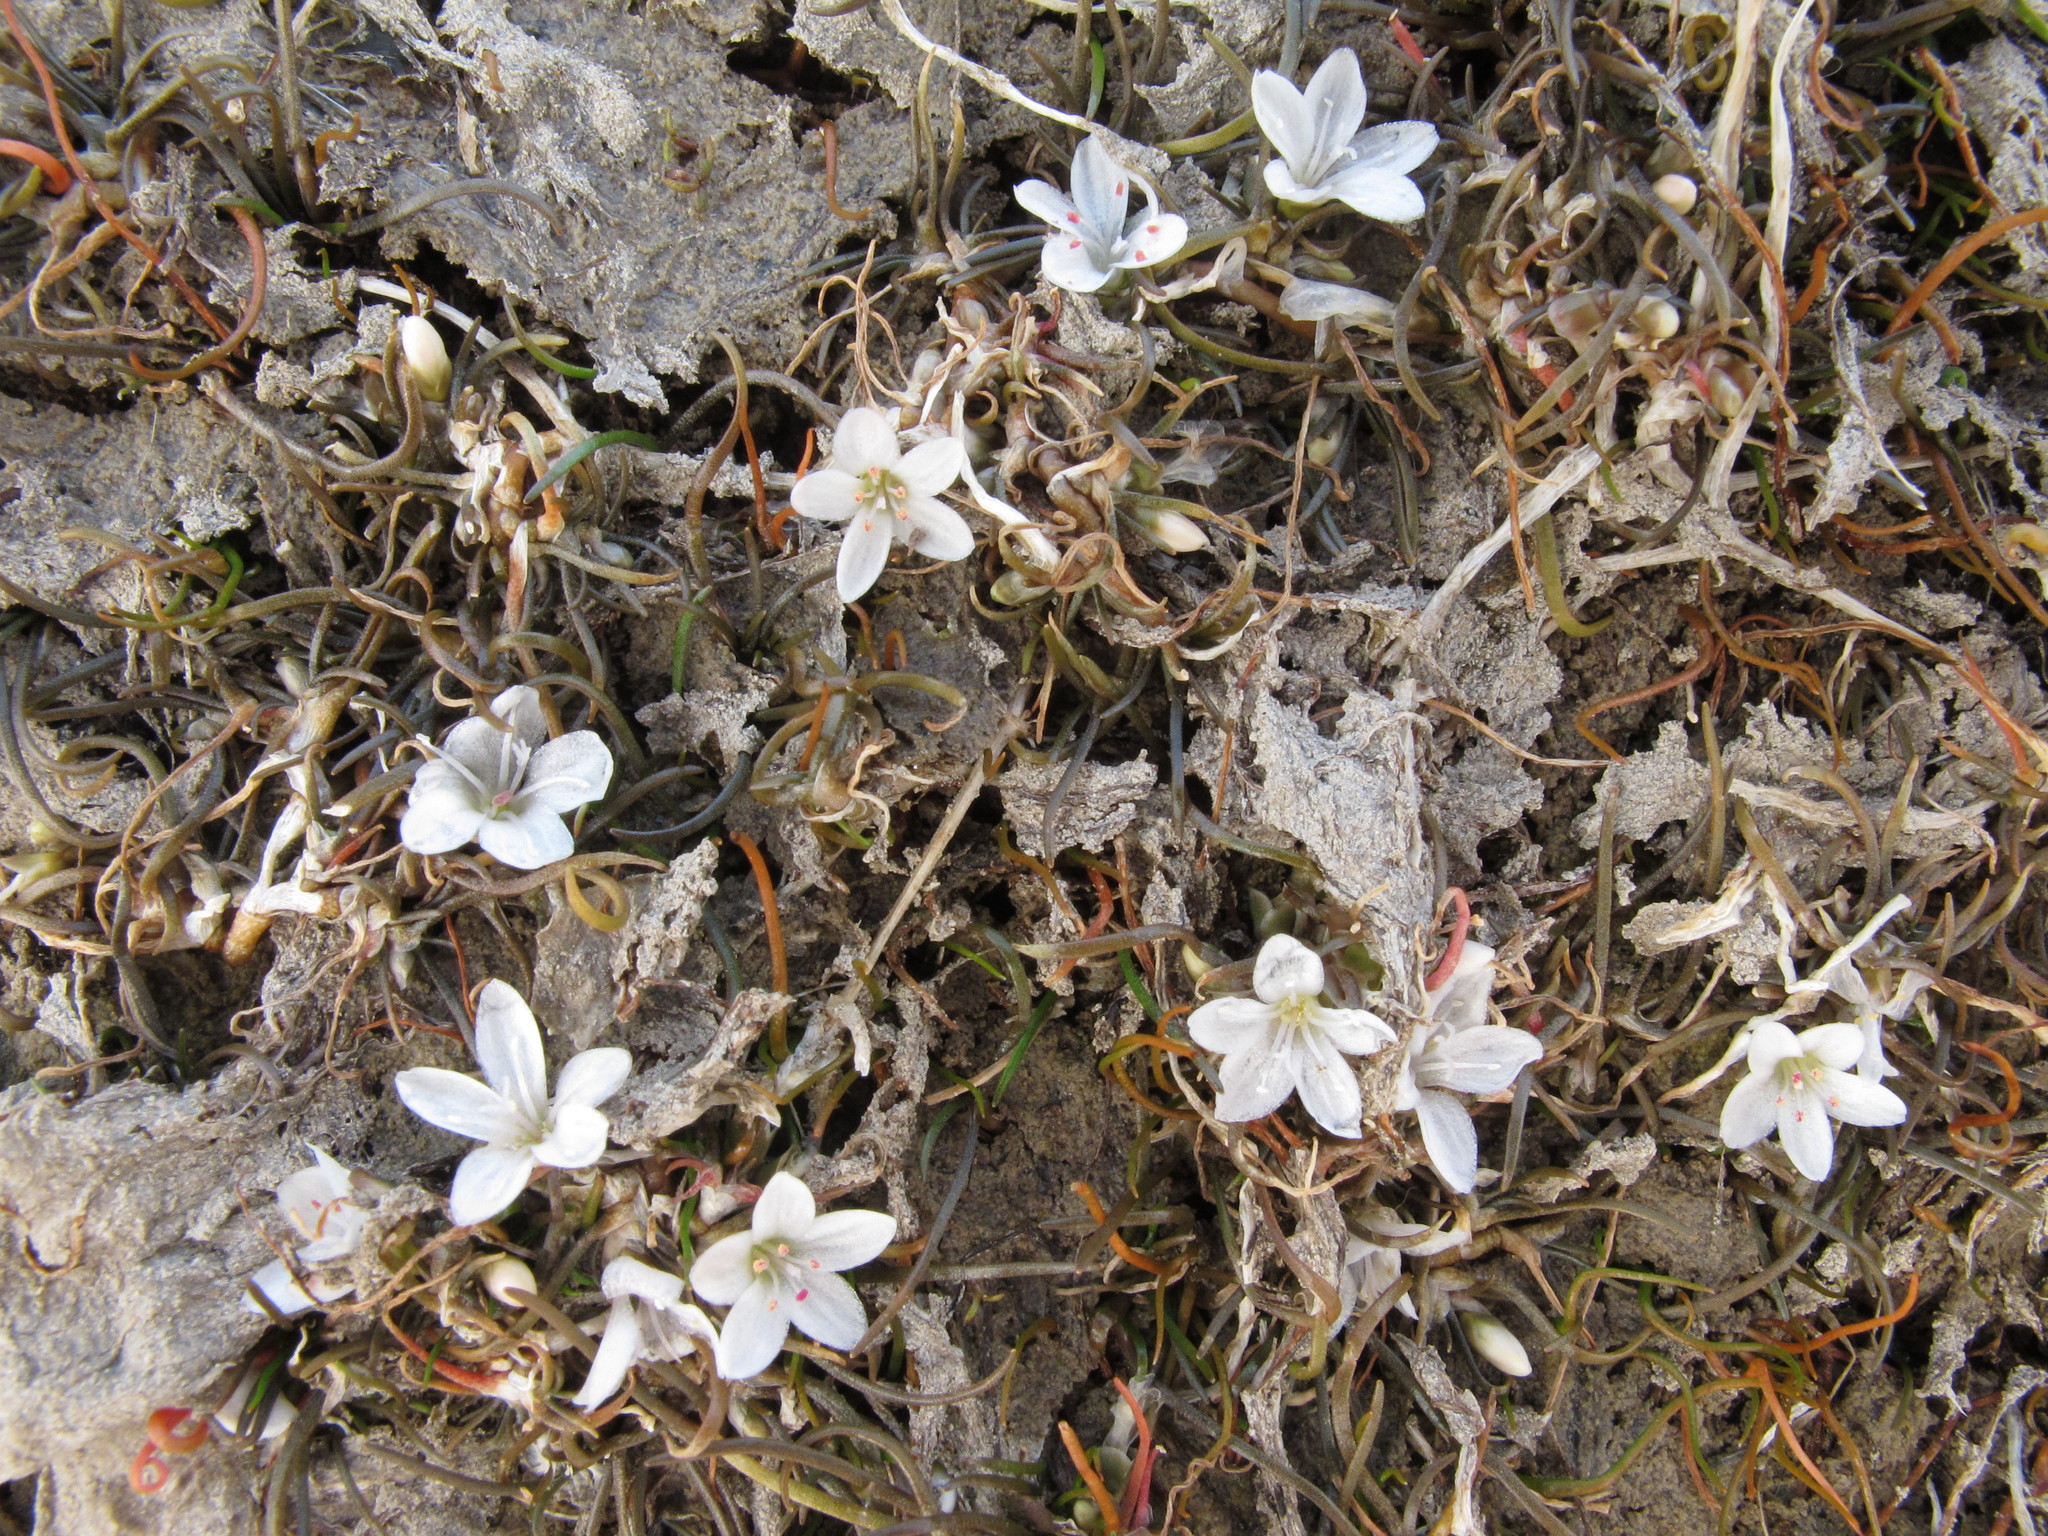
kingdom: Plantae
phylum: Tracheophyta
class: Magnoliopsida
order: Caryophyllales
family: Montiaceae
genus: Montia
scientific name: Montia angustifolia
